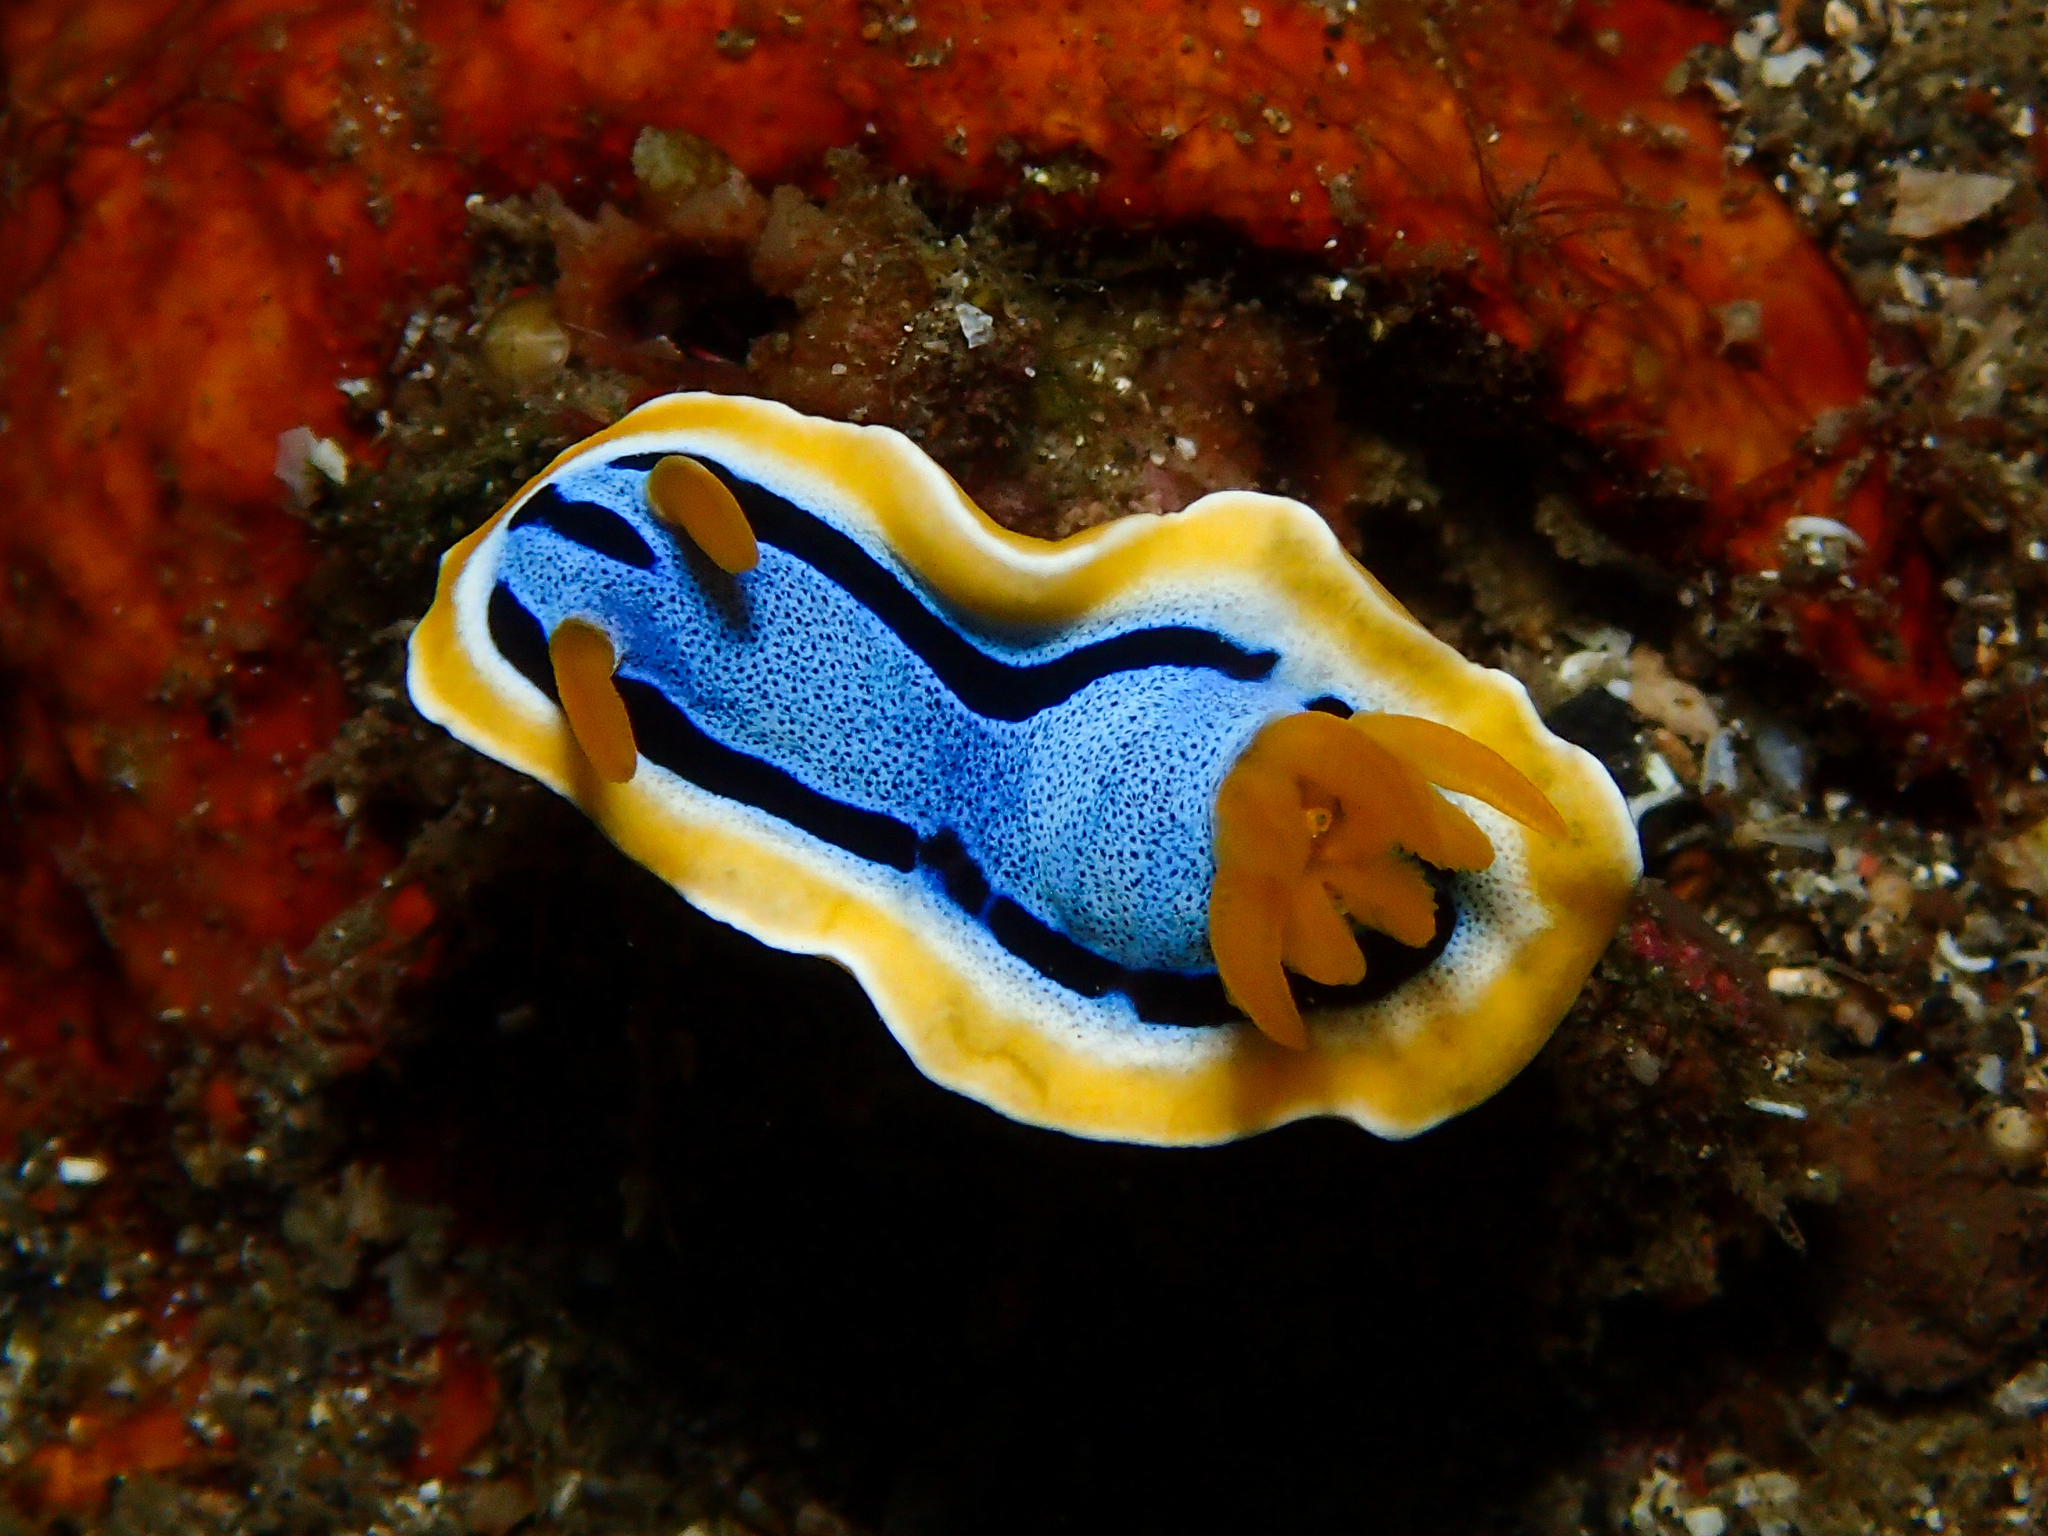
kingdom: Animalia
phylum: Mollusca
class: Gastropoda
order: Nudibranchia
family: Chromodorididae
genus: Chromodoris
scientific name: Chromodoris annae
